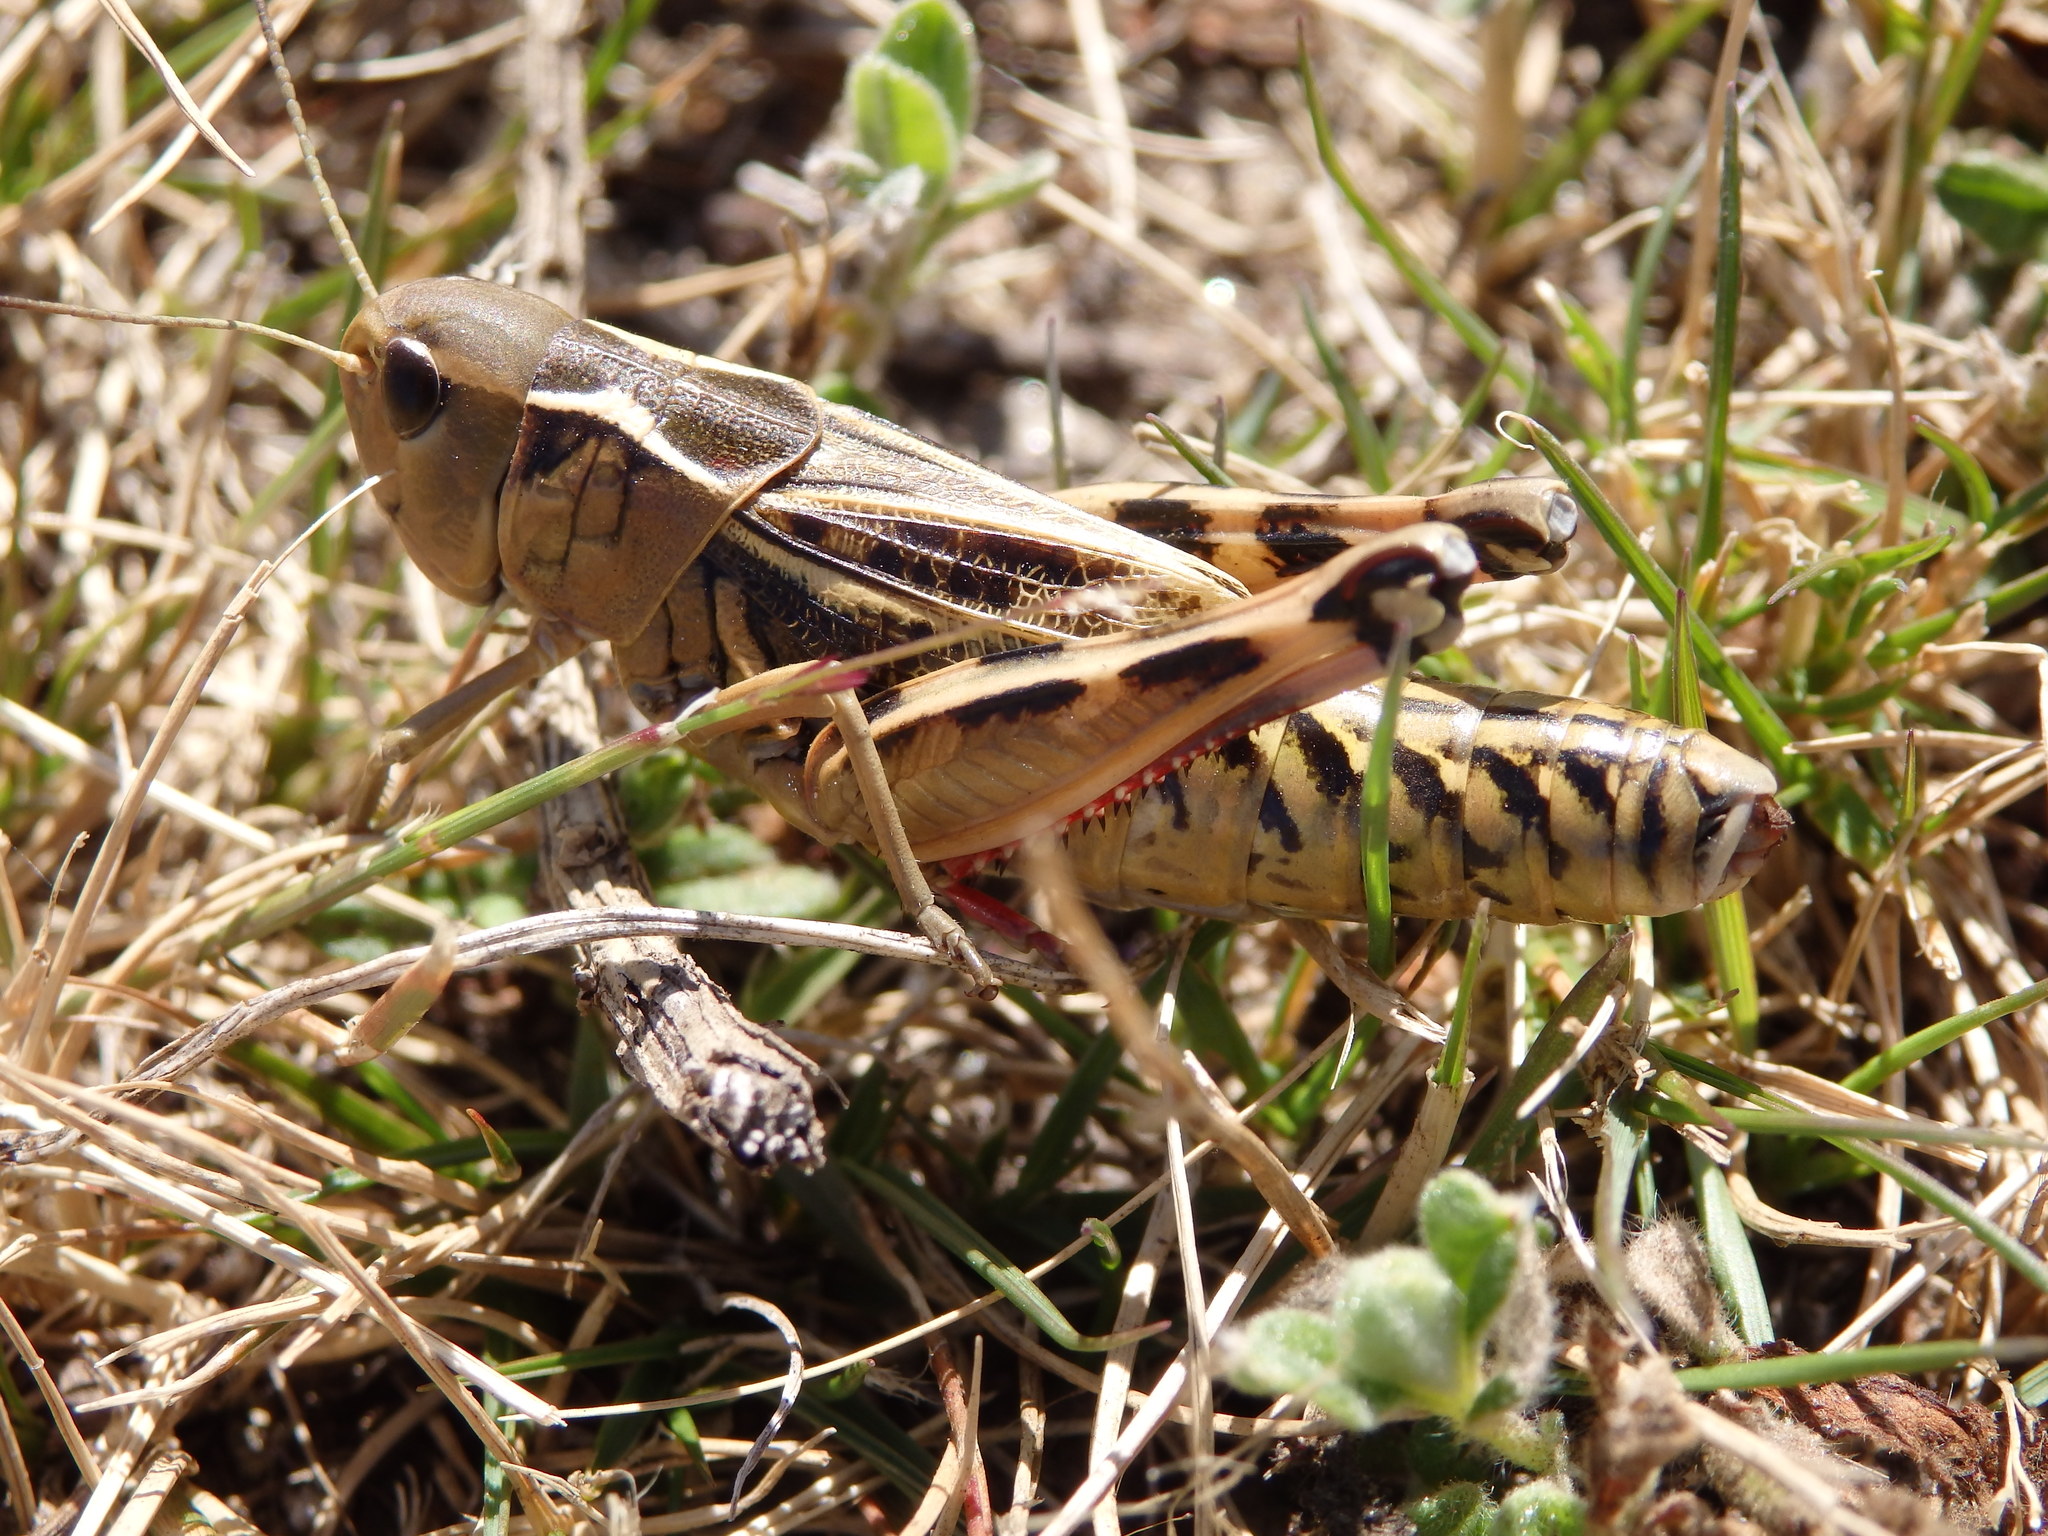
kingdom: Animalia
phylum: Arthropoda
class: Insecta
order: Orthoptera
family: Acrididae
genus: Arcyptera
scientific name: Arcyptera tornosi
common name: Iberian banded grasshopper
